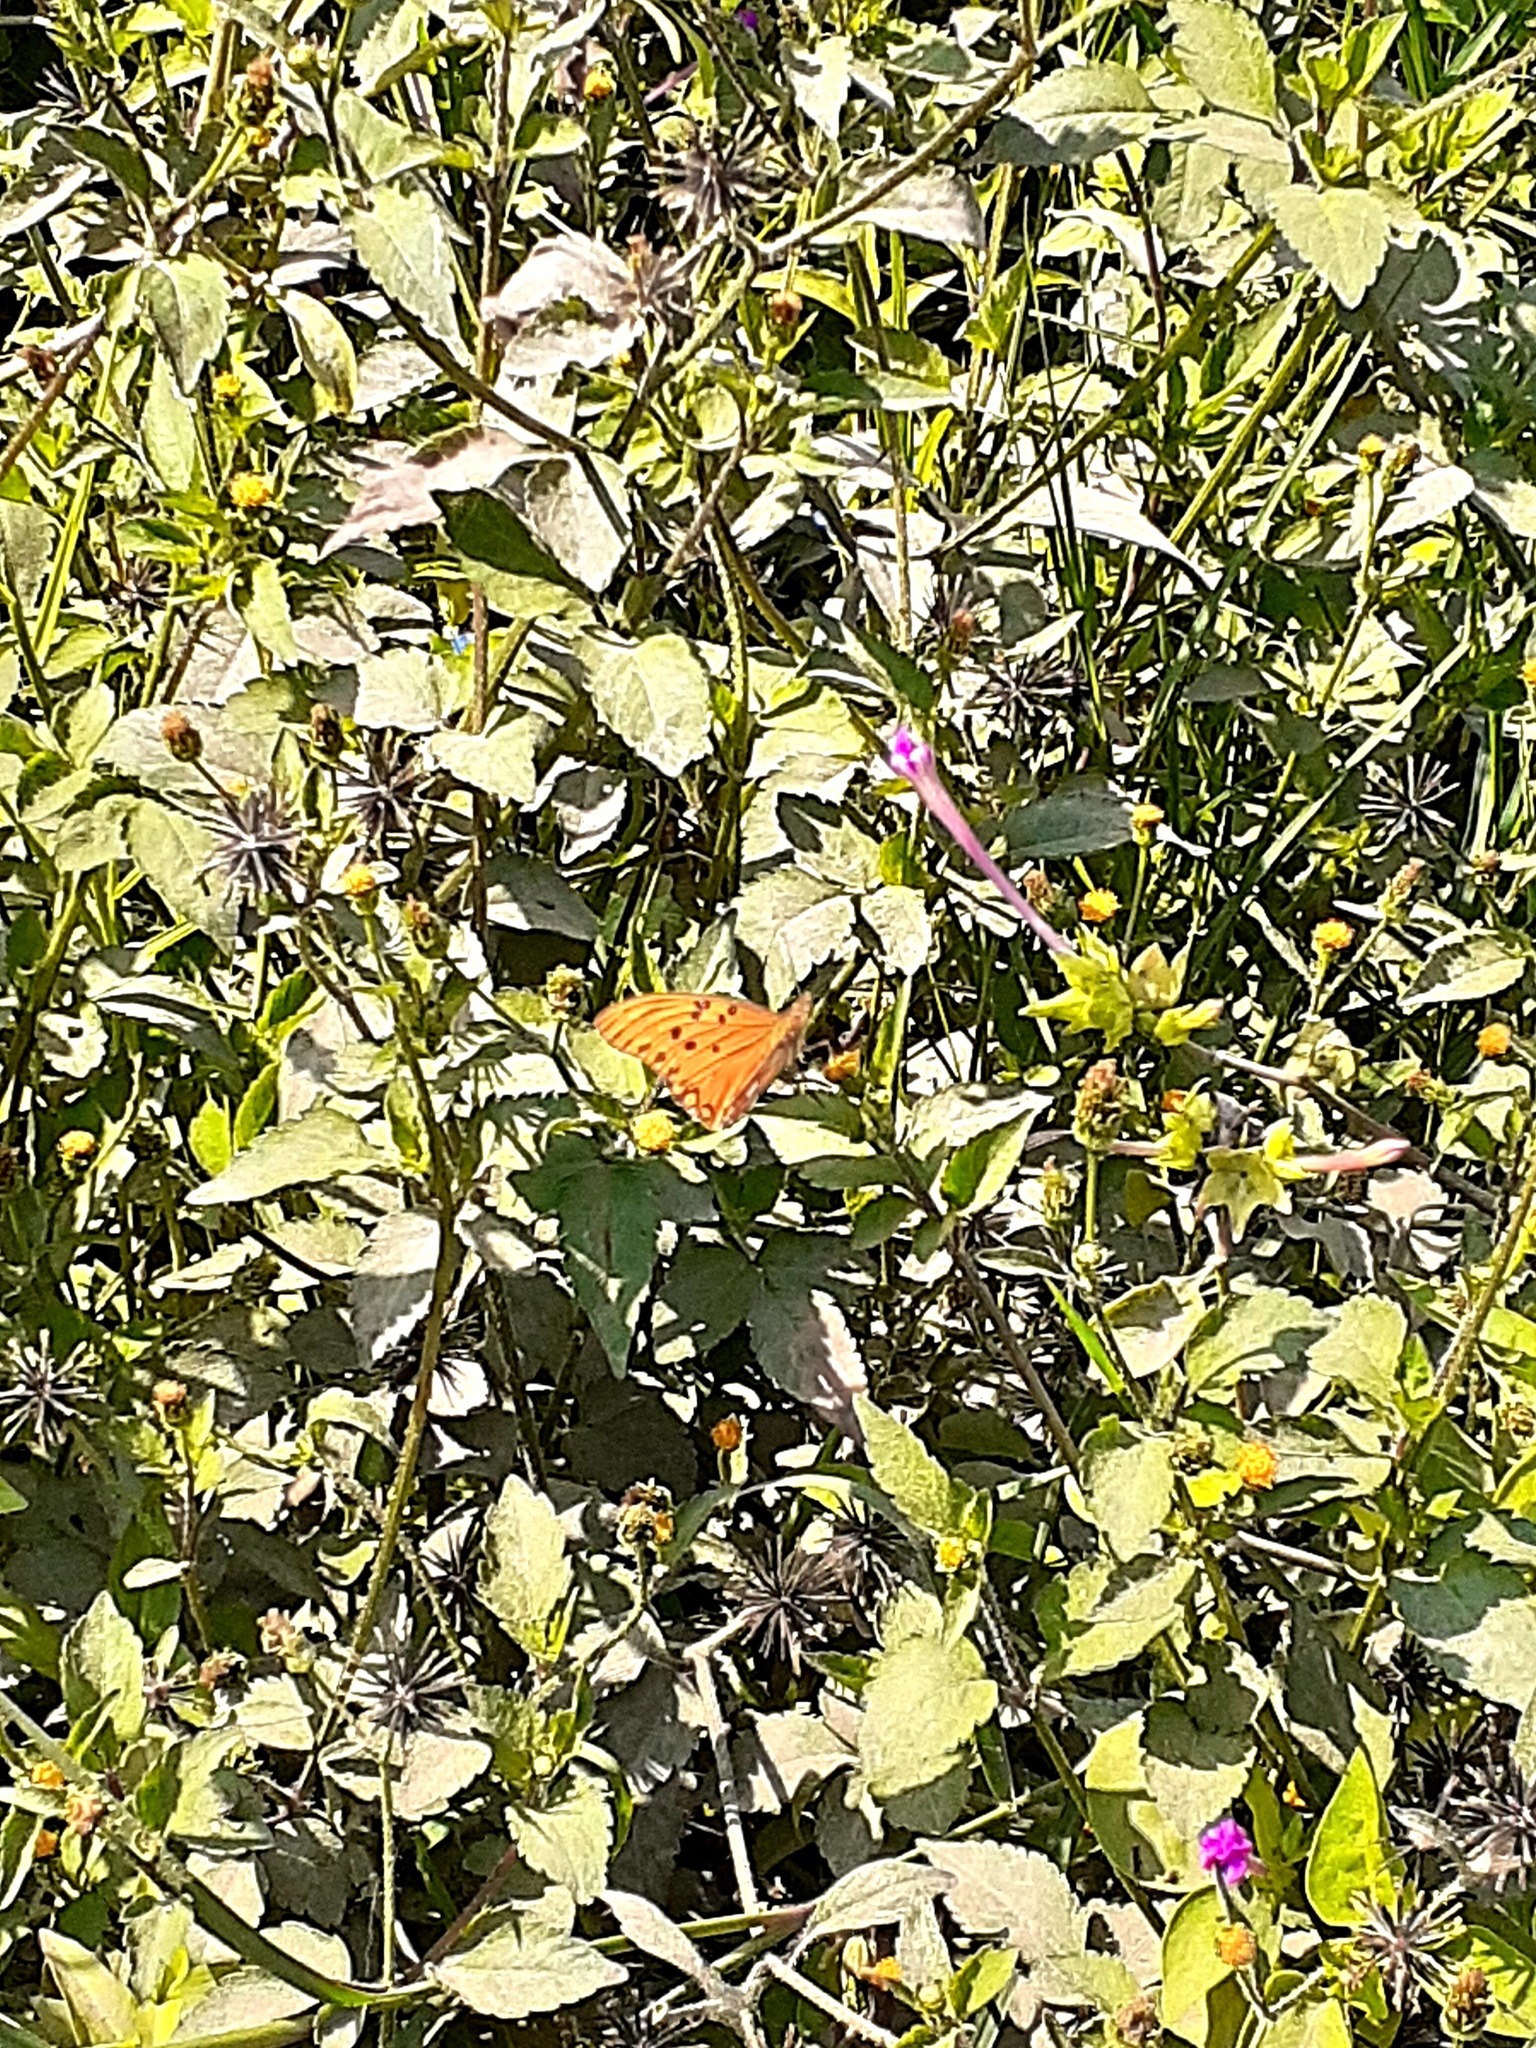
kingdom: Animalia
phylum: Arthropoda
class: Insecta
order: Lepidoptera
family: Nymphalidae
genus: Dione
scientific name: Dione vanillae
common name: Gulf fritillary
